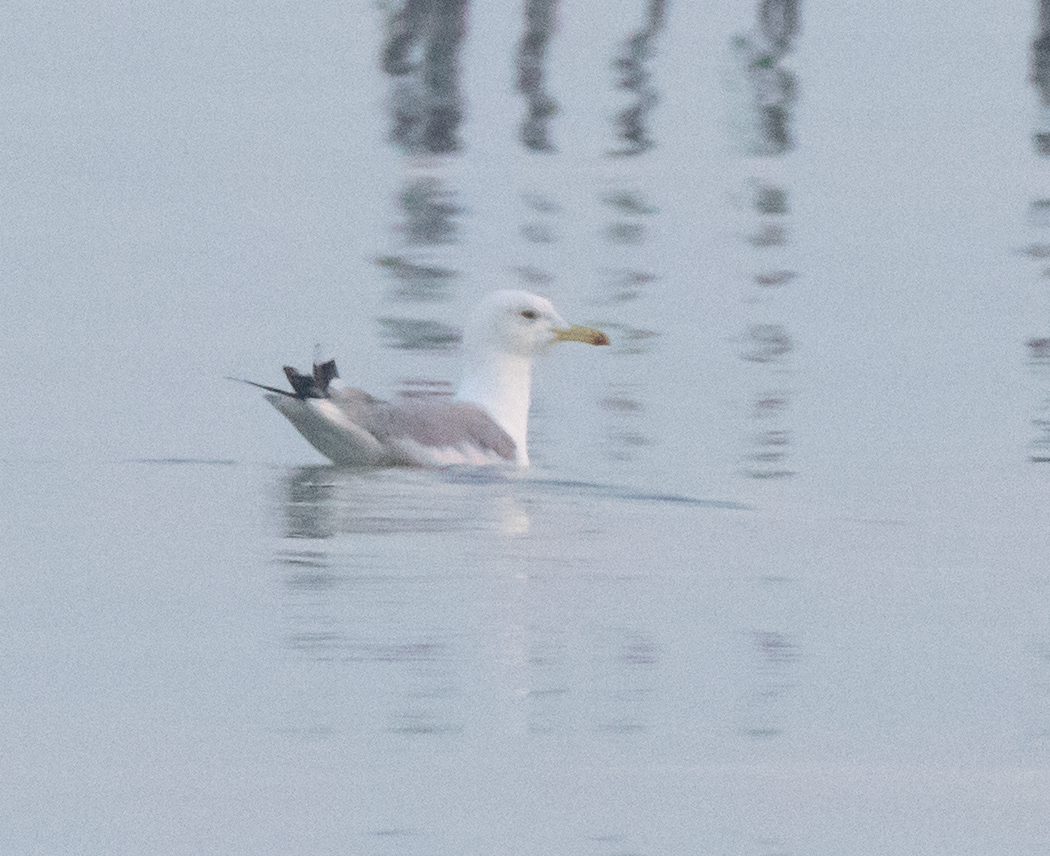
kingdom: Animalia
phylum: Chordata
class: Aves
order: Charadriiformes
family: Laridae
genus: Larus
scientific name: Larus cachinnans
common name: Caspian gull
